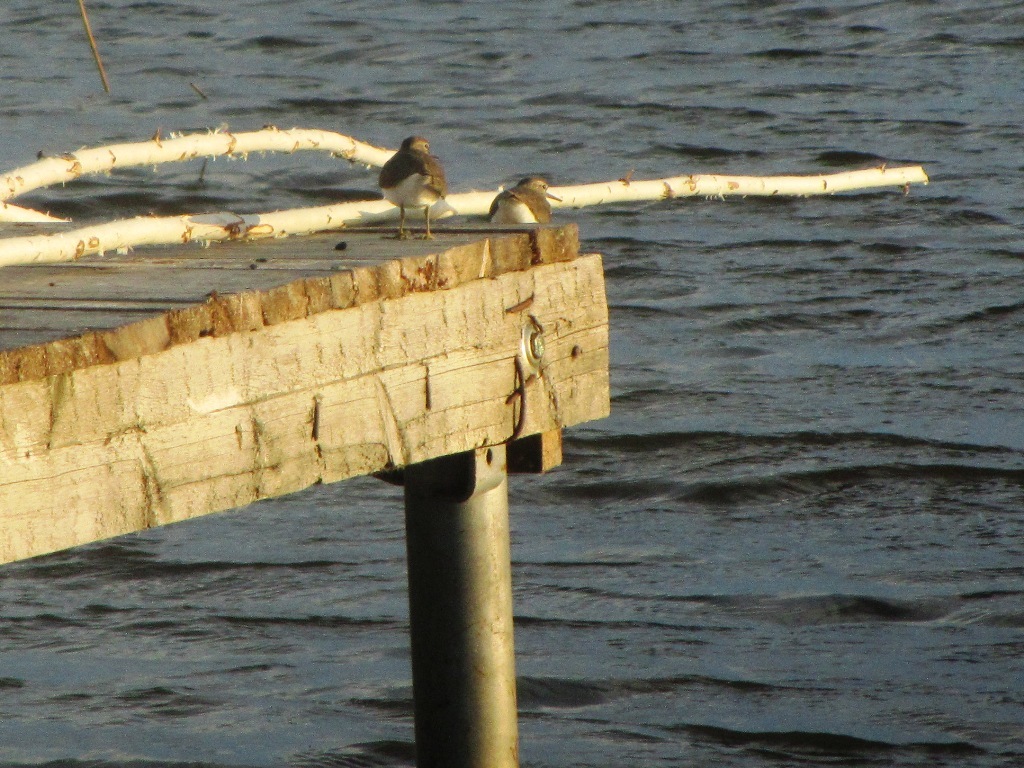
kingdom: Animalia
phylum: Chordata
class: Aves
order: Charadriiformes
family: Scolopacidae
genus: Actitis
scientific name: Actitis hypoleucos
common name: Common sandpiper
